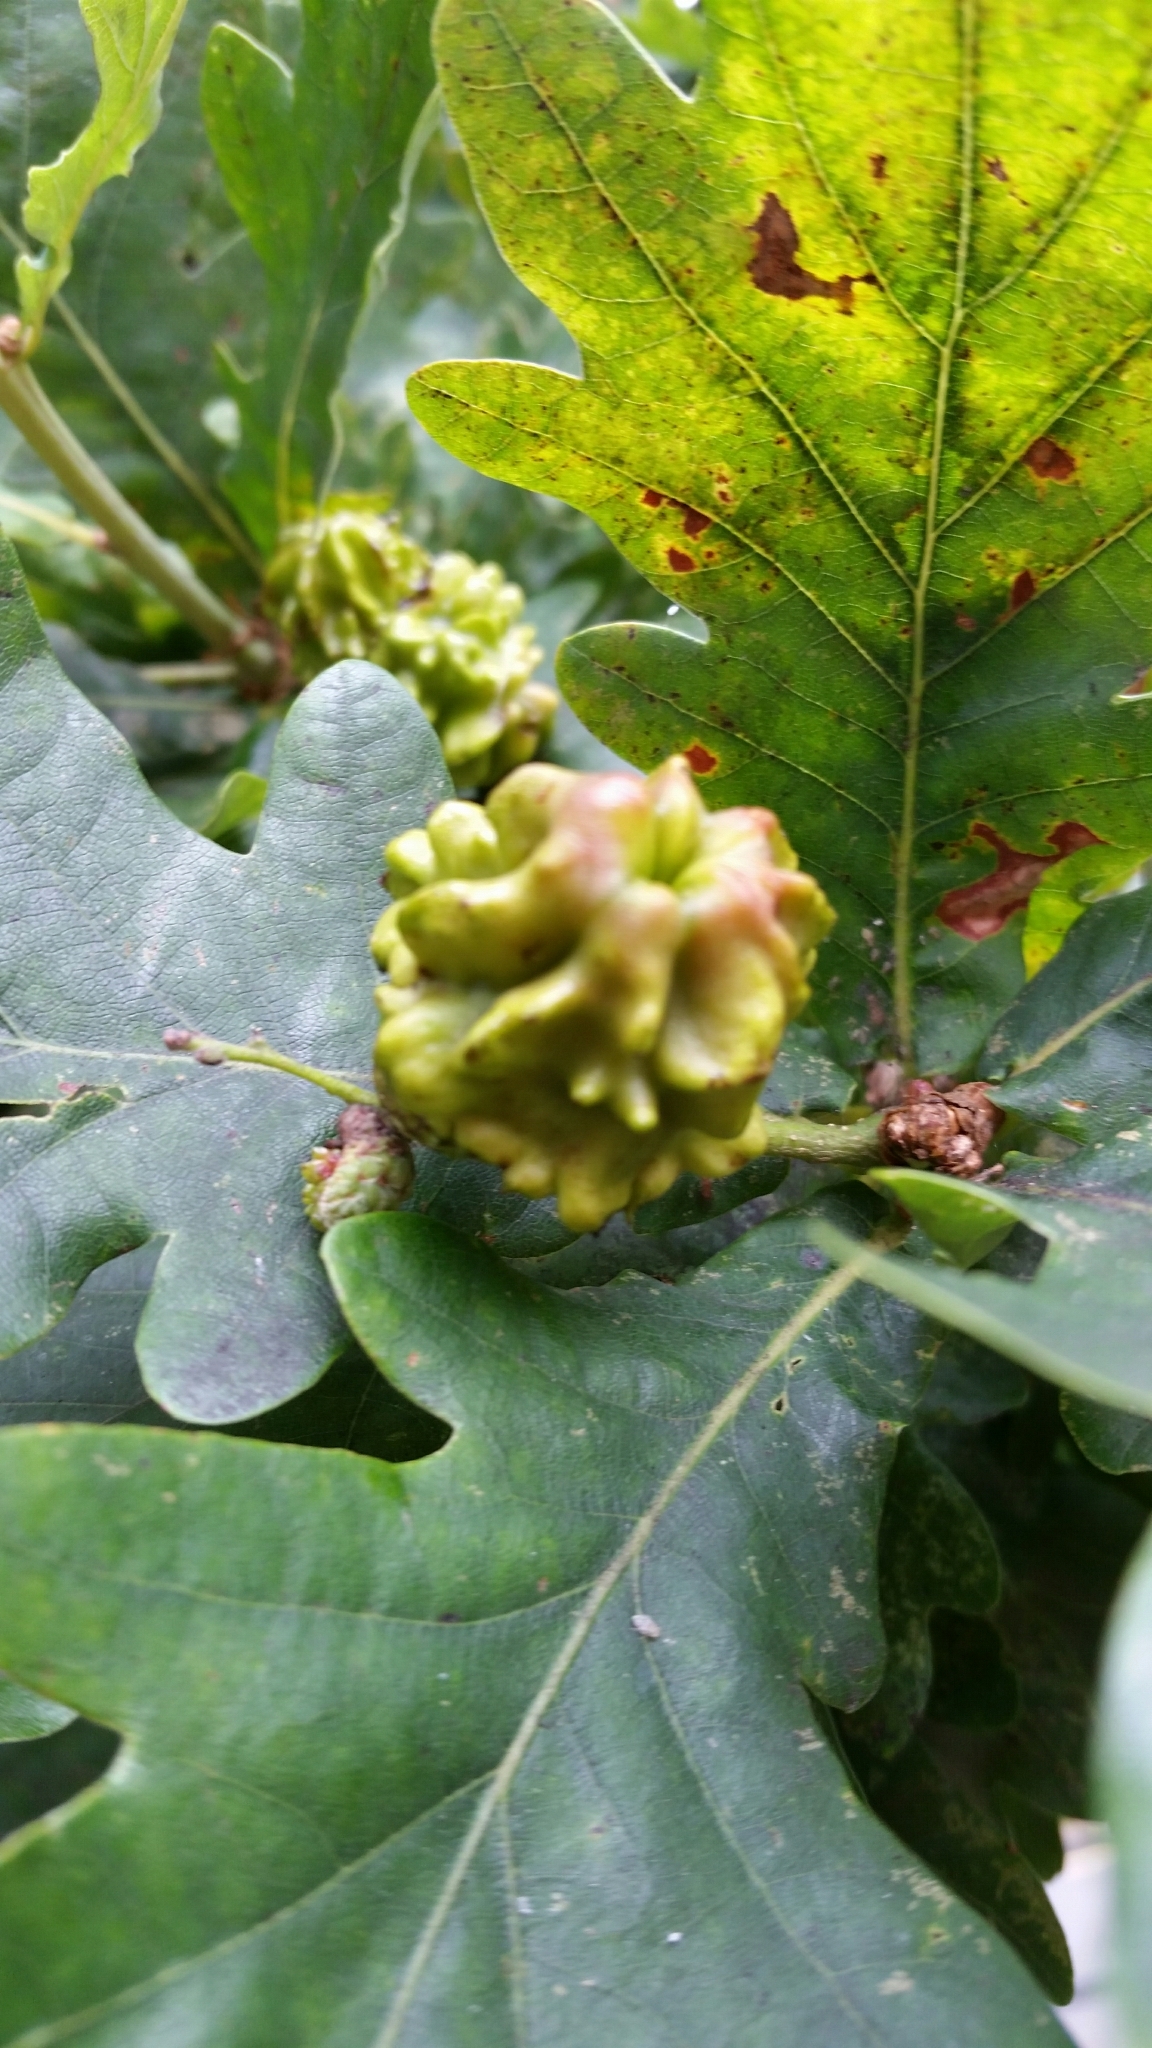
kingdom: Animalia
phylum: Arthropoda
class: Insecta
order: Hymenoptera
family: Cynipidae
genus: Andricus
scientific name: Andricus quercuscalicis
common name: Knopper gall
